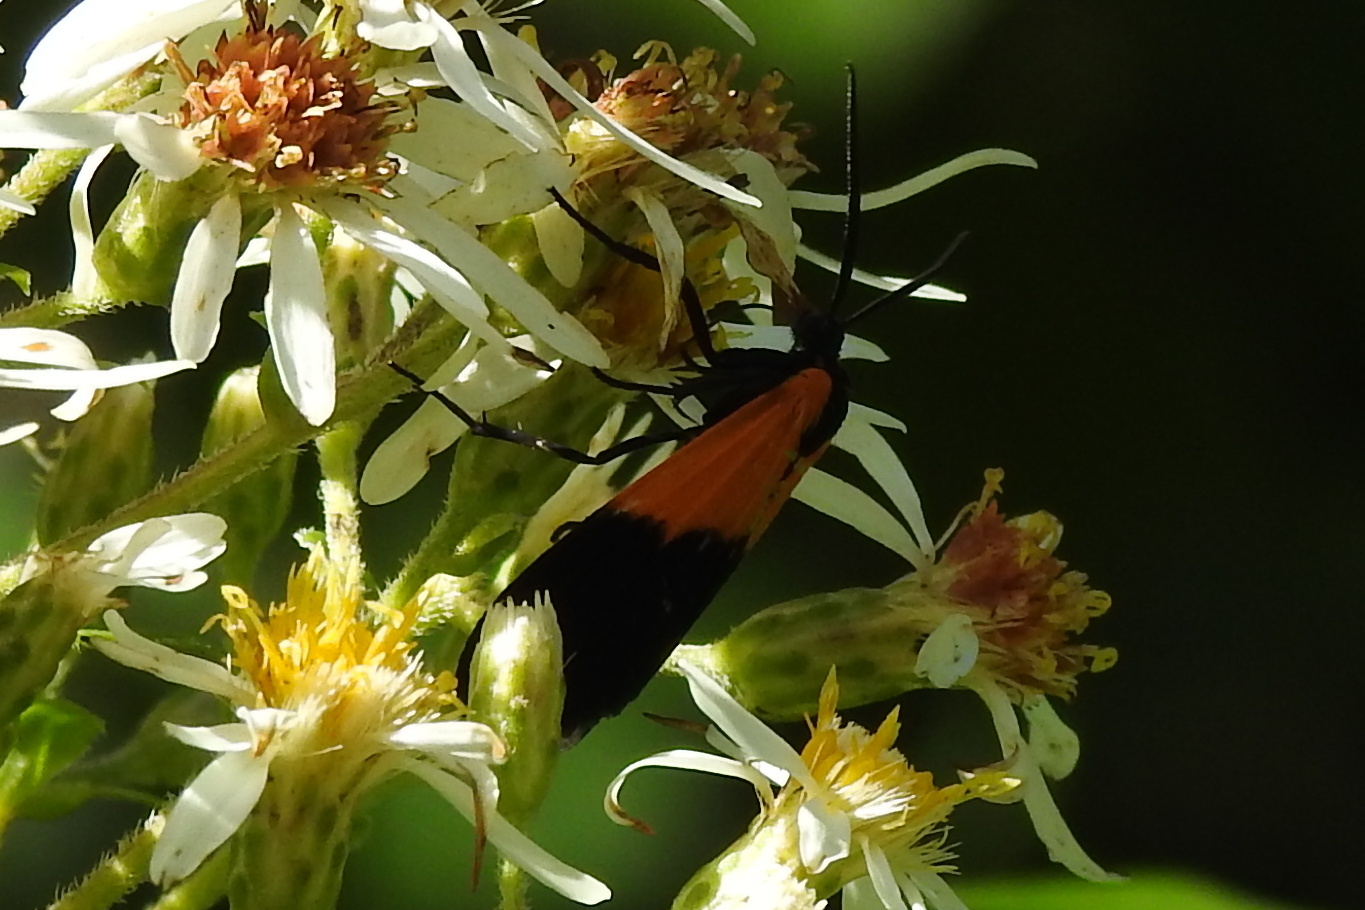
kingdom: Animalia
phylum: Arthropoda
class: Insecta
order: Lepidoptera
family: Erebidae
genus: Lycomorpha
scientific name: Lycomorpha pholus
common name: Black-and-yellow lichen moth
